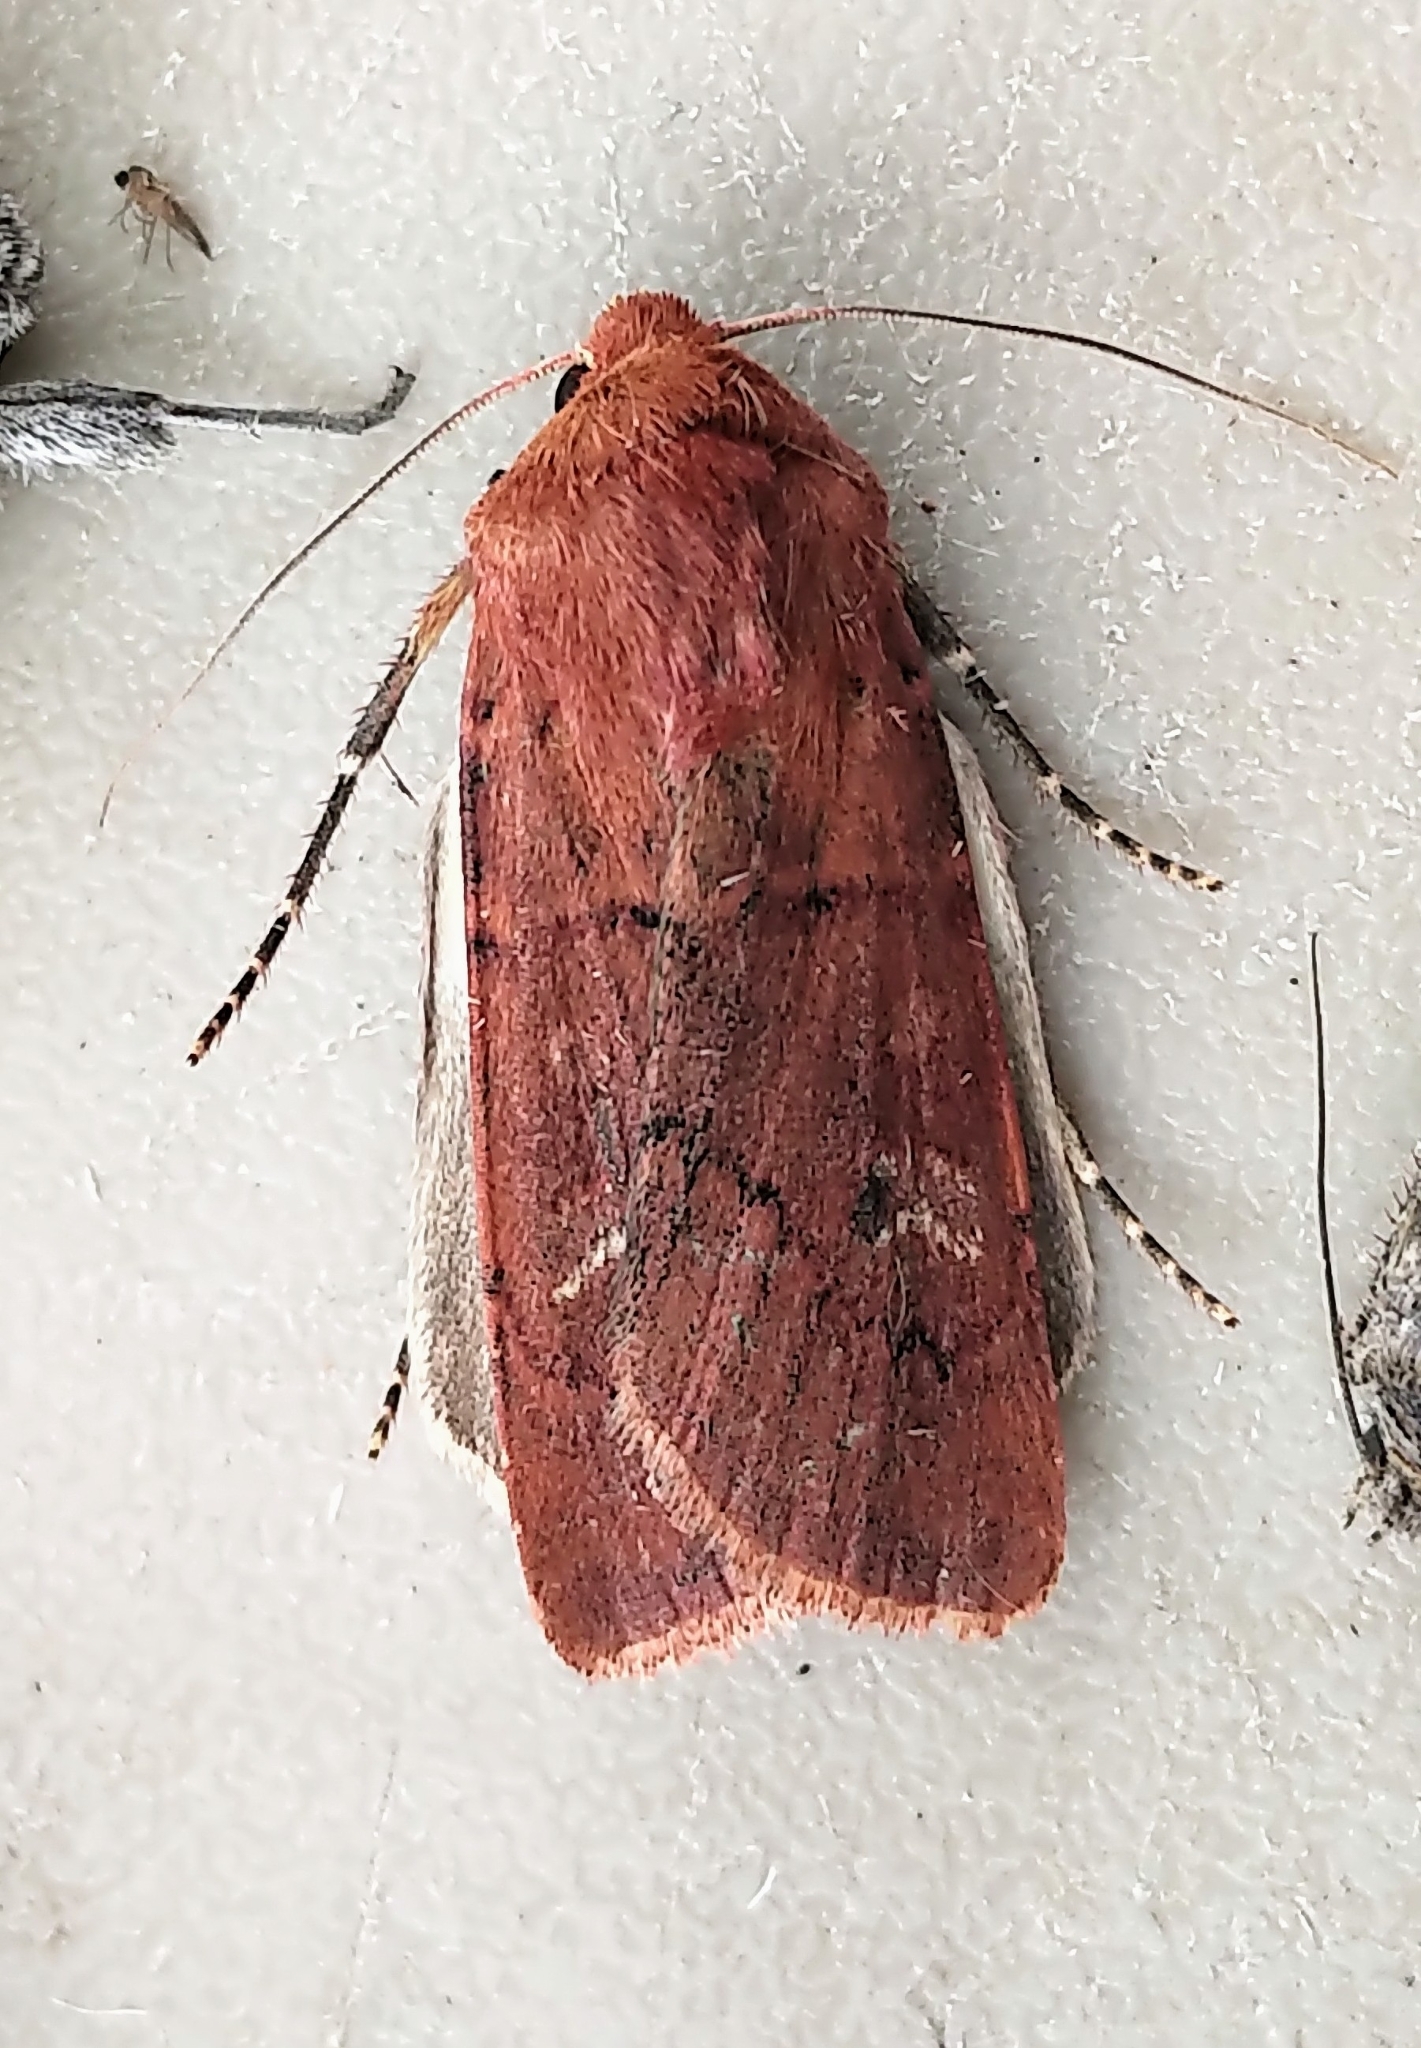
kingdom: Animalia
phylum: Arthropoda
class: Insecta
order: Lepidoptera
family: Noctuidae
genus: Euxoa
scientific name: Euxoa mimallonis
